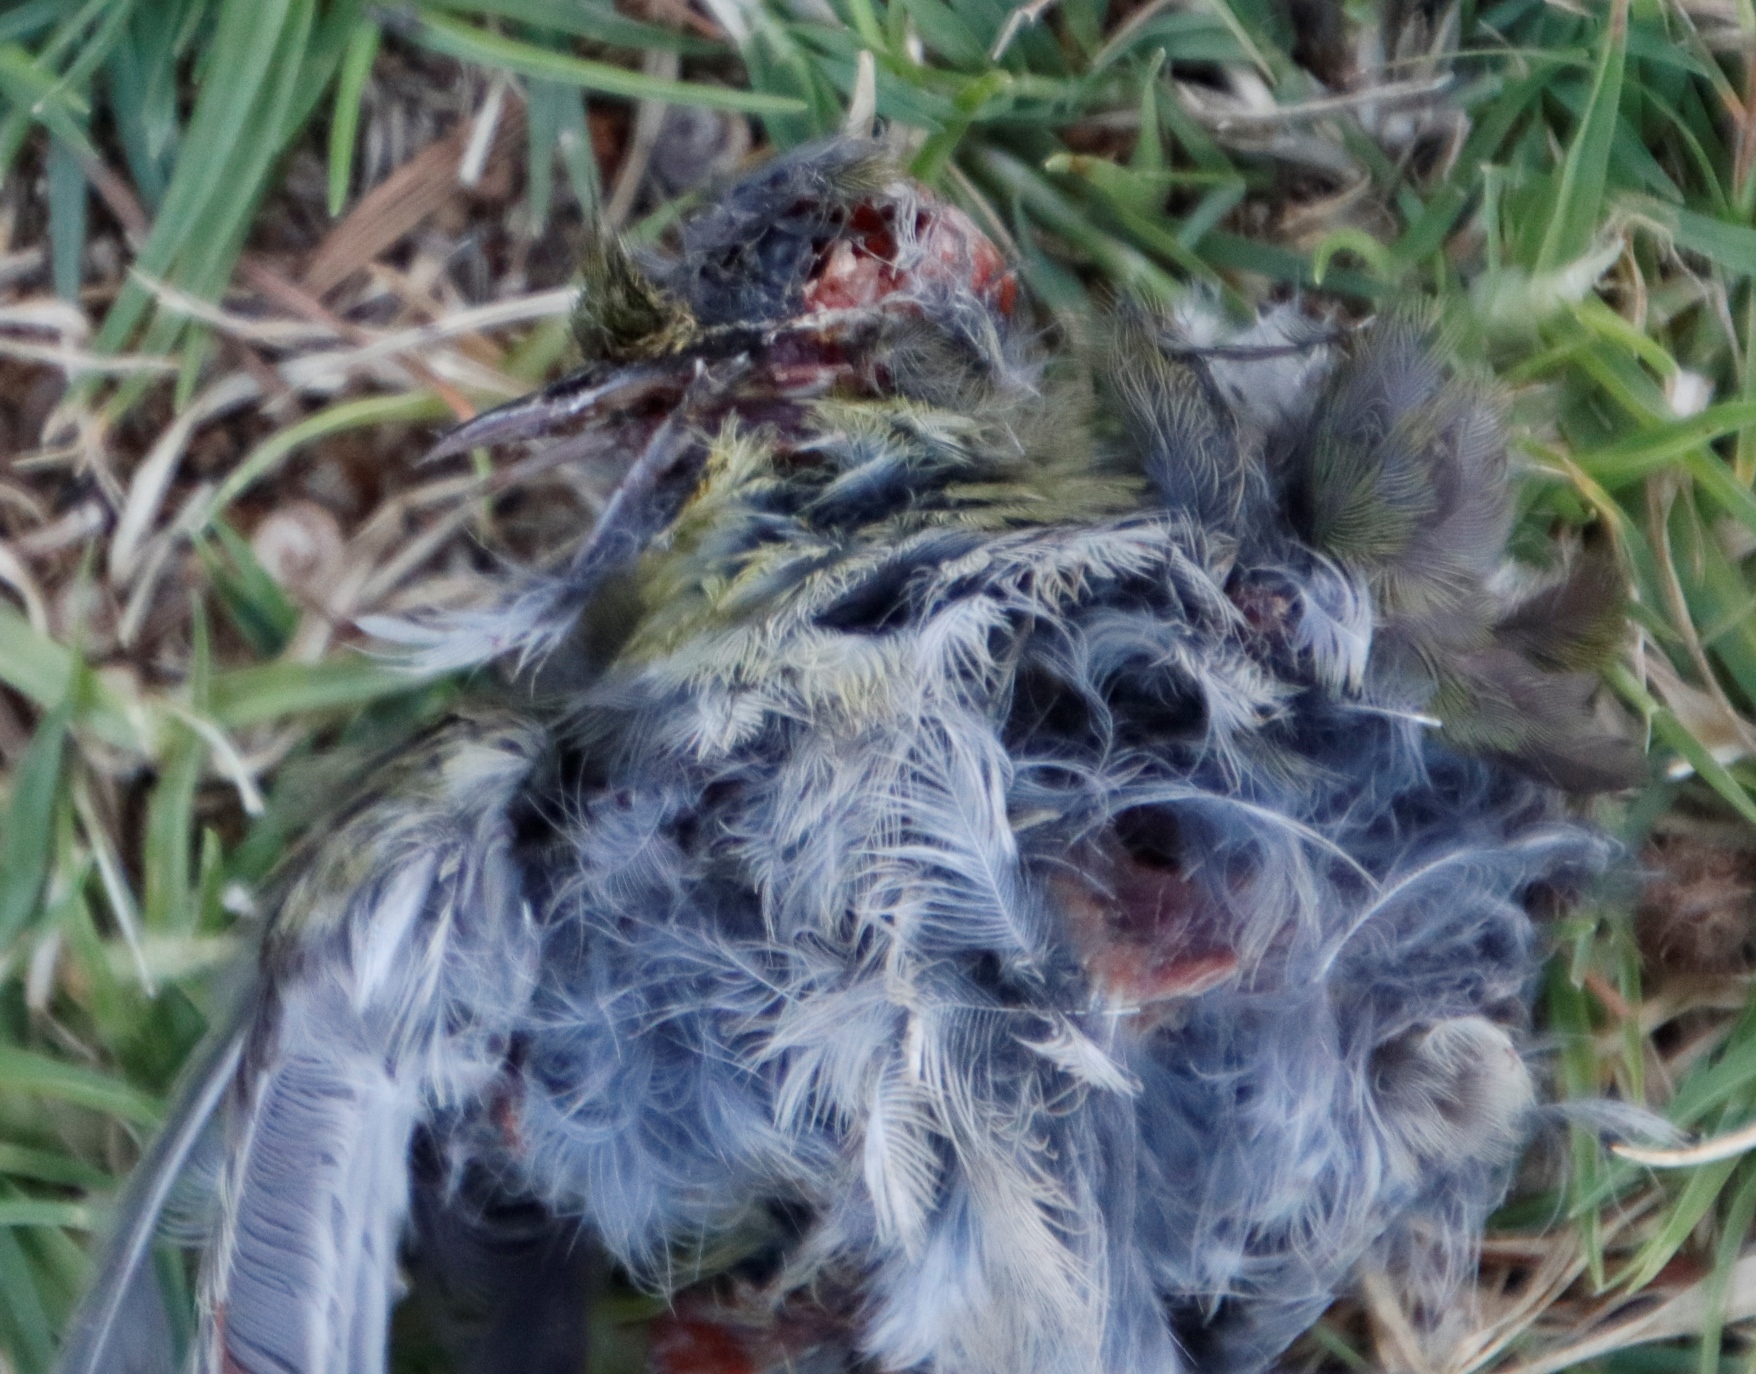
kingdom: Animalia
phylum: Chordata
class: Aves
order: Passeriformes
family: Zosteropidae
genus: Zosterops
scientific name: Zosterops virens
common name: Cape white-eye
